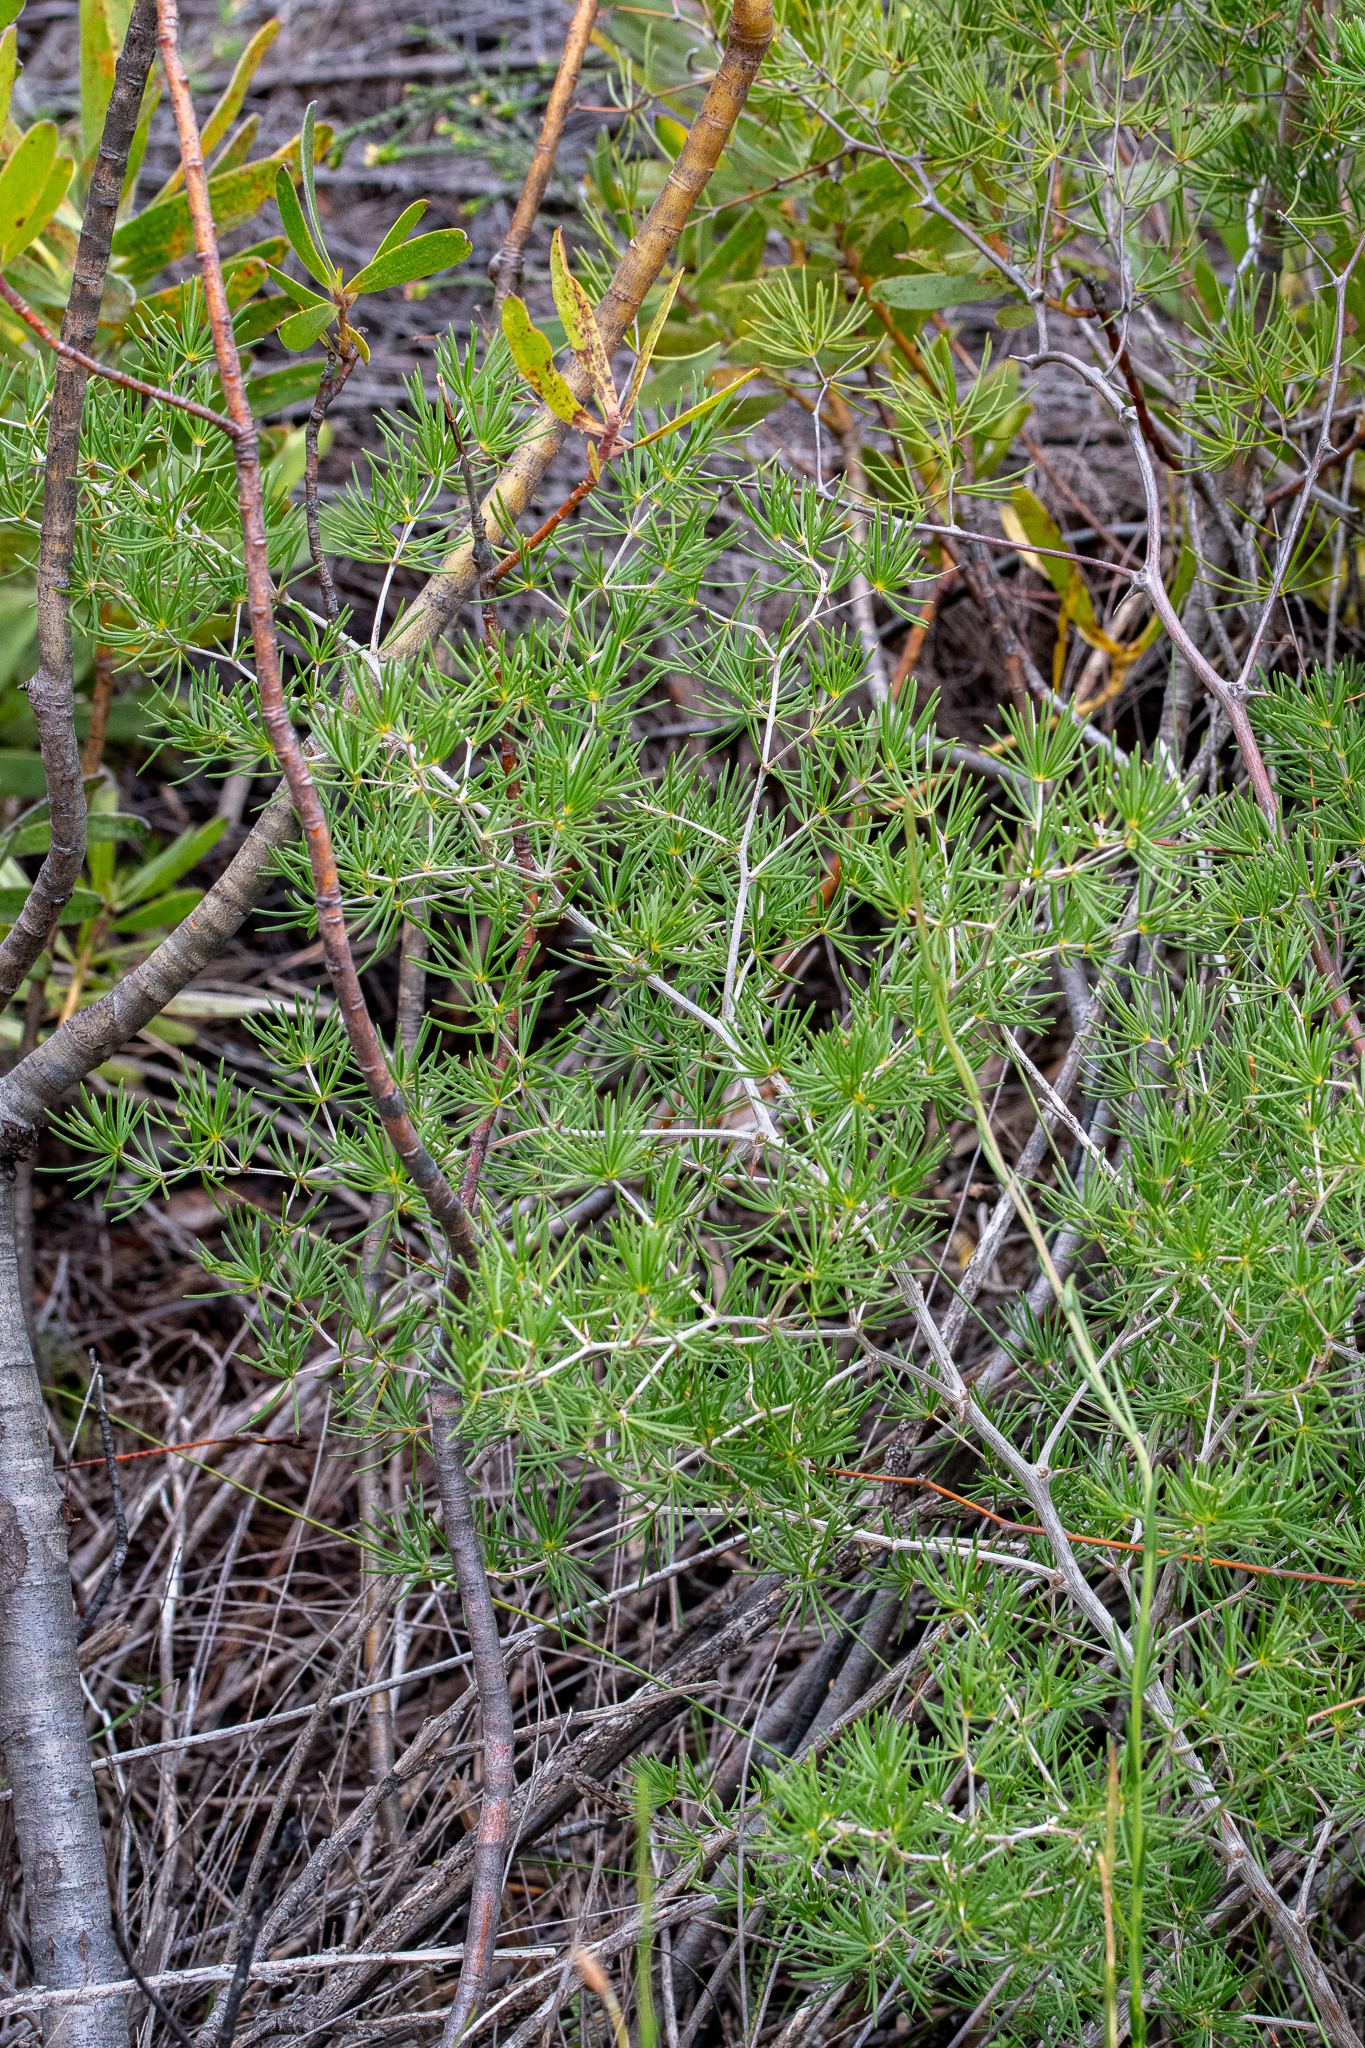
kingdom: Plantae
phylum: Tracheophyta
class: Liliopsida
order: Asparagales
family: Asparagaceae
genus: Asparagus
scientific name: Asparagus lignosus
